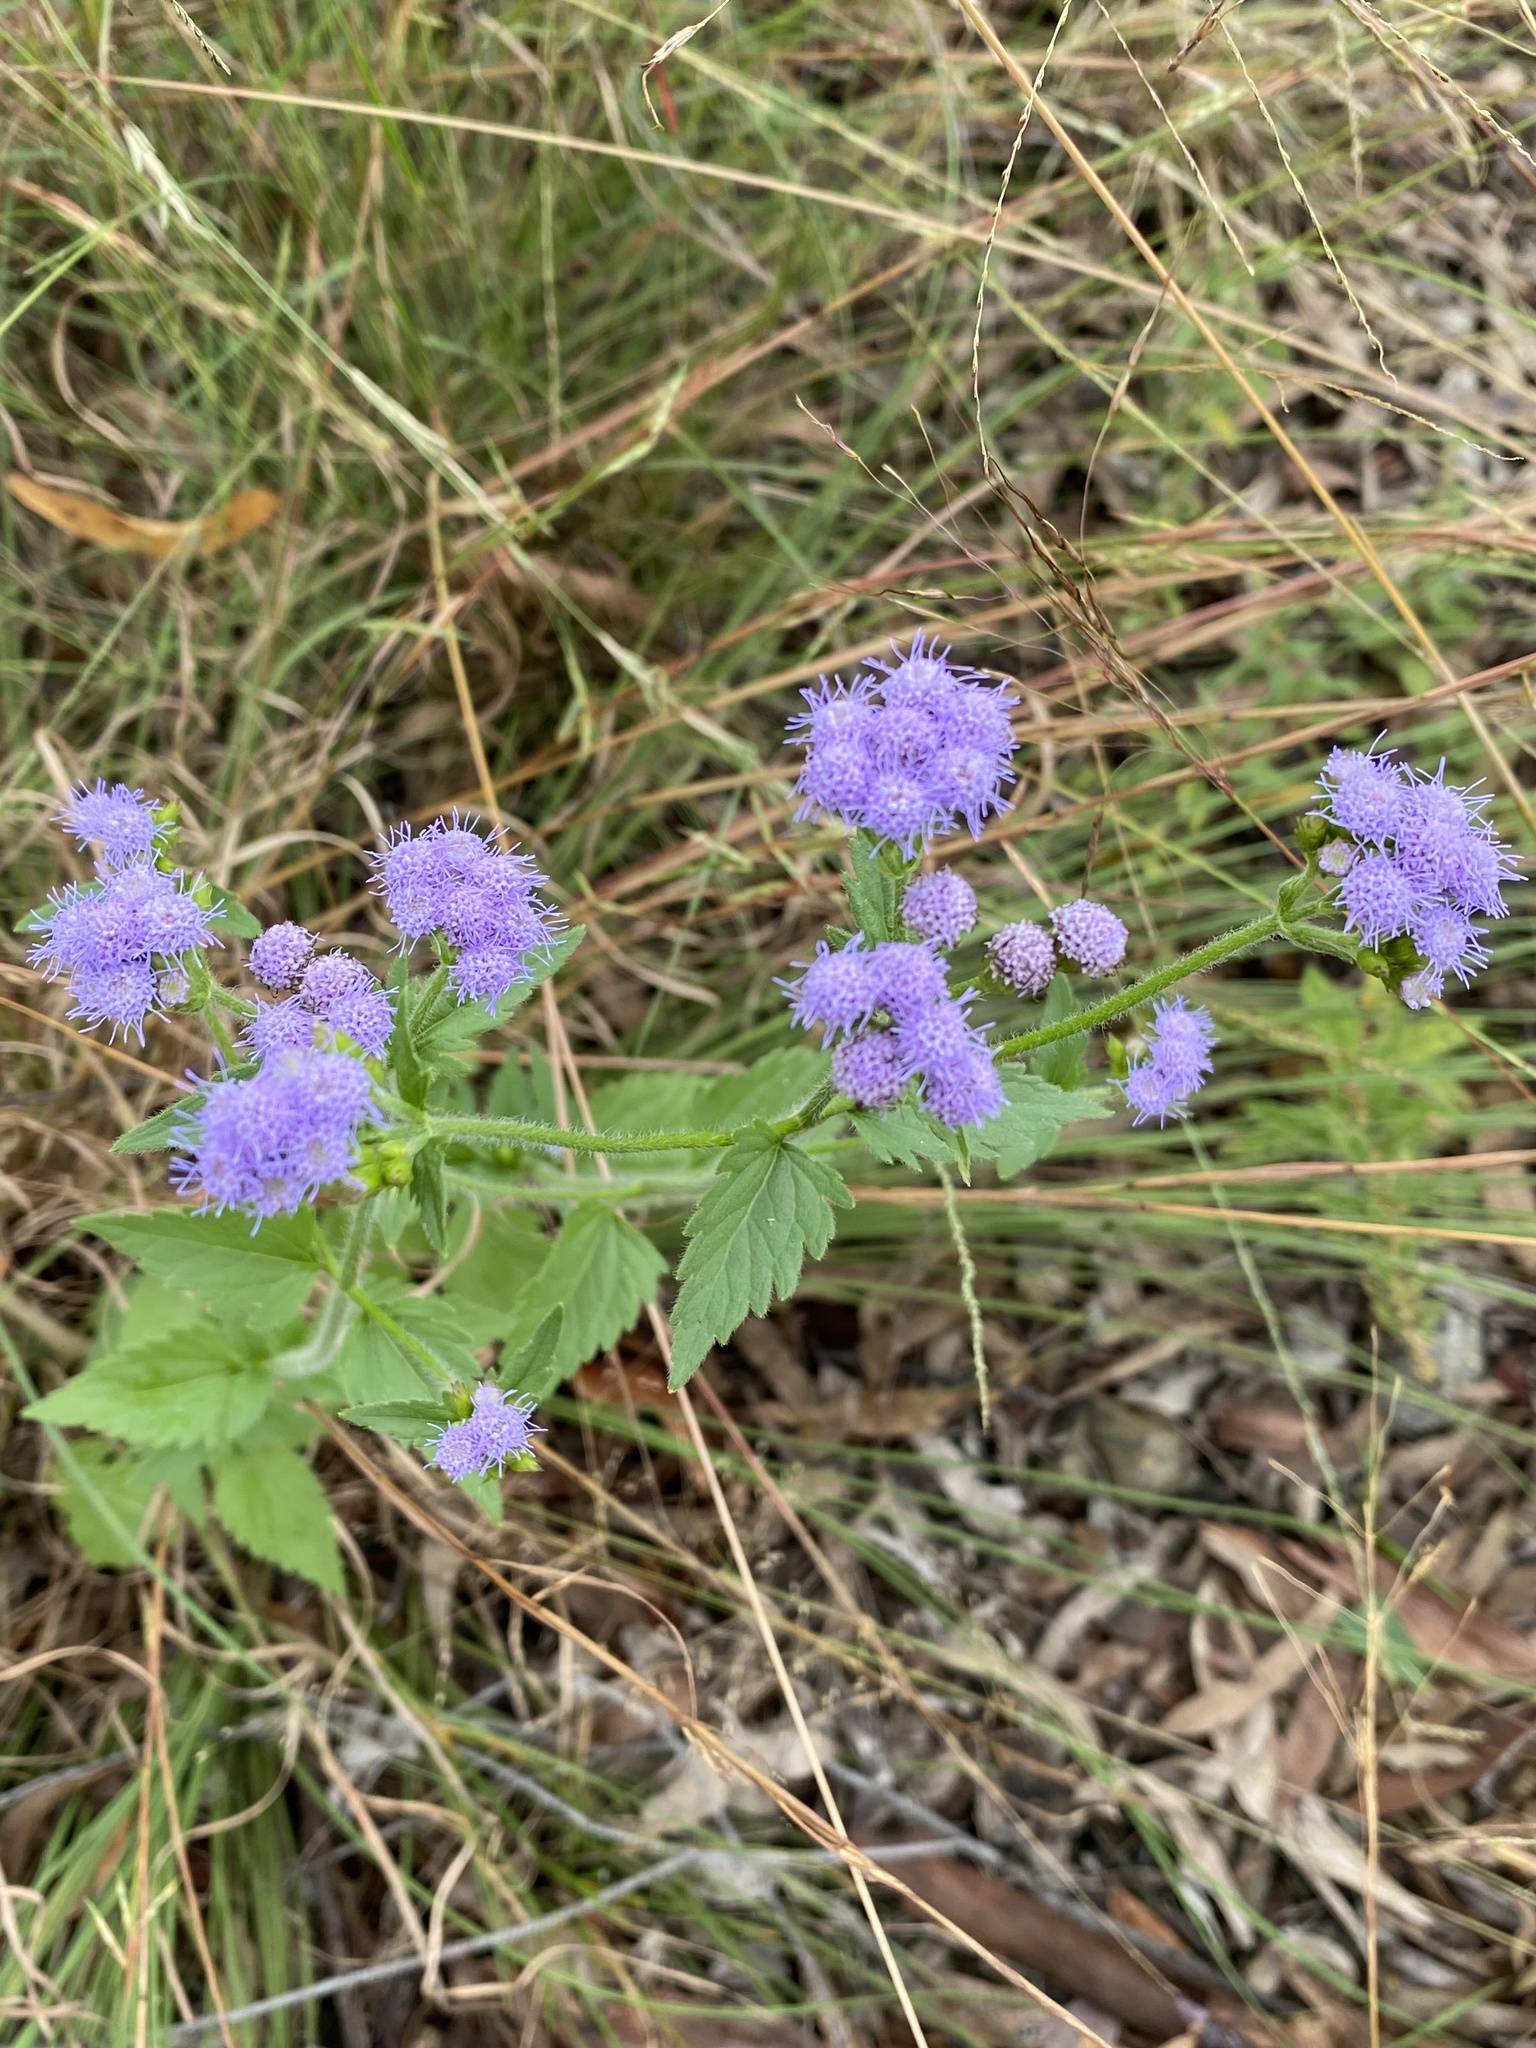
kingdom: Plantae
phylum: Tracheophyta
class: Magnoliopsida
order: Asterales
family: Asteraceae
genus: Praxelis
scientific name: Praxelis clematidea
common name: Praxelis
